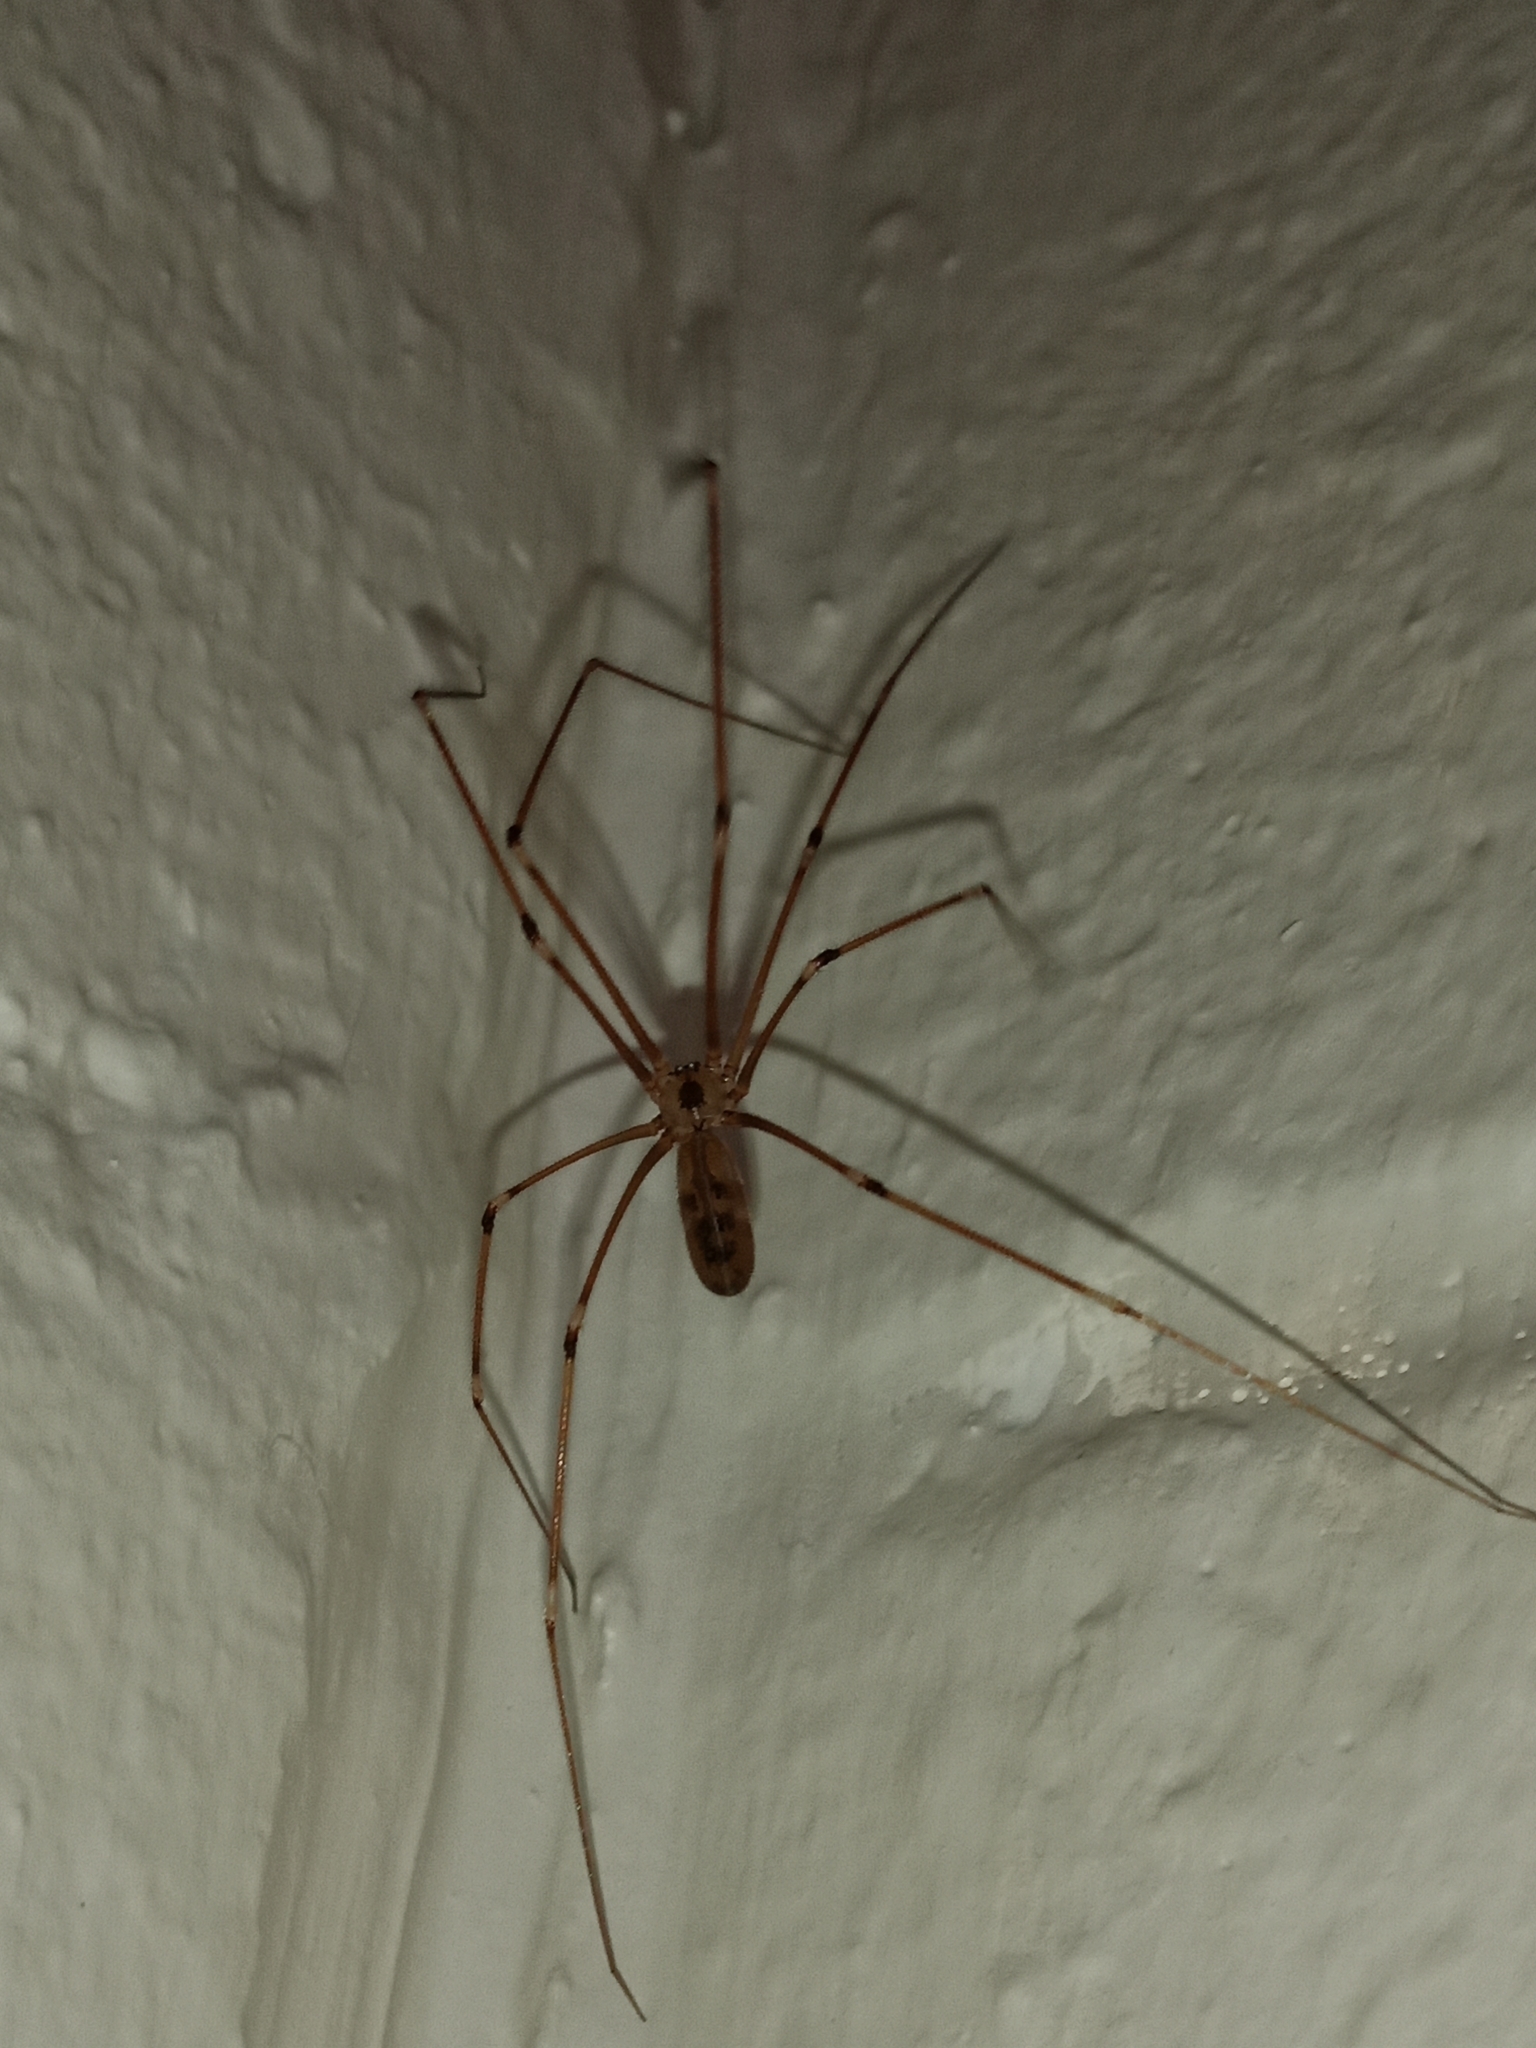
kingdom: Animalia
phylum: Arthropoda
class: Arachnida
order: Araneae
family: Pholcidae
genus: Pholcus
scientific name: Pholcus phalangioides
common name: Longbodied cellar spider
